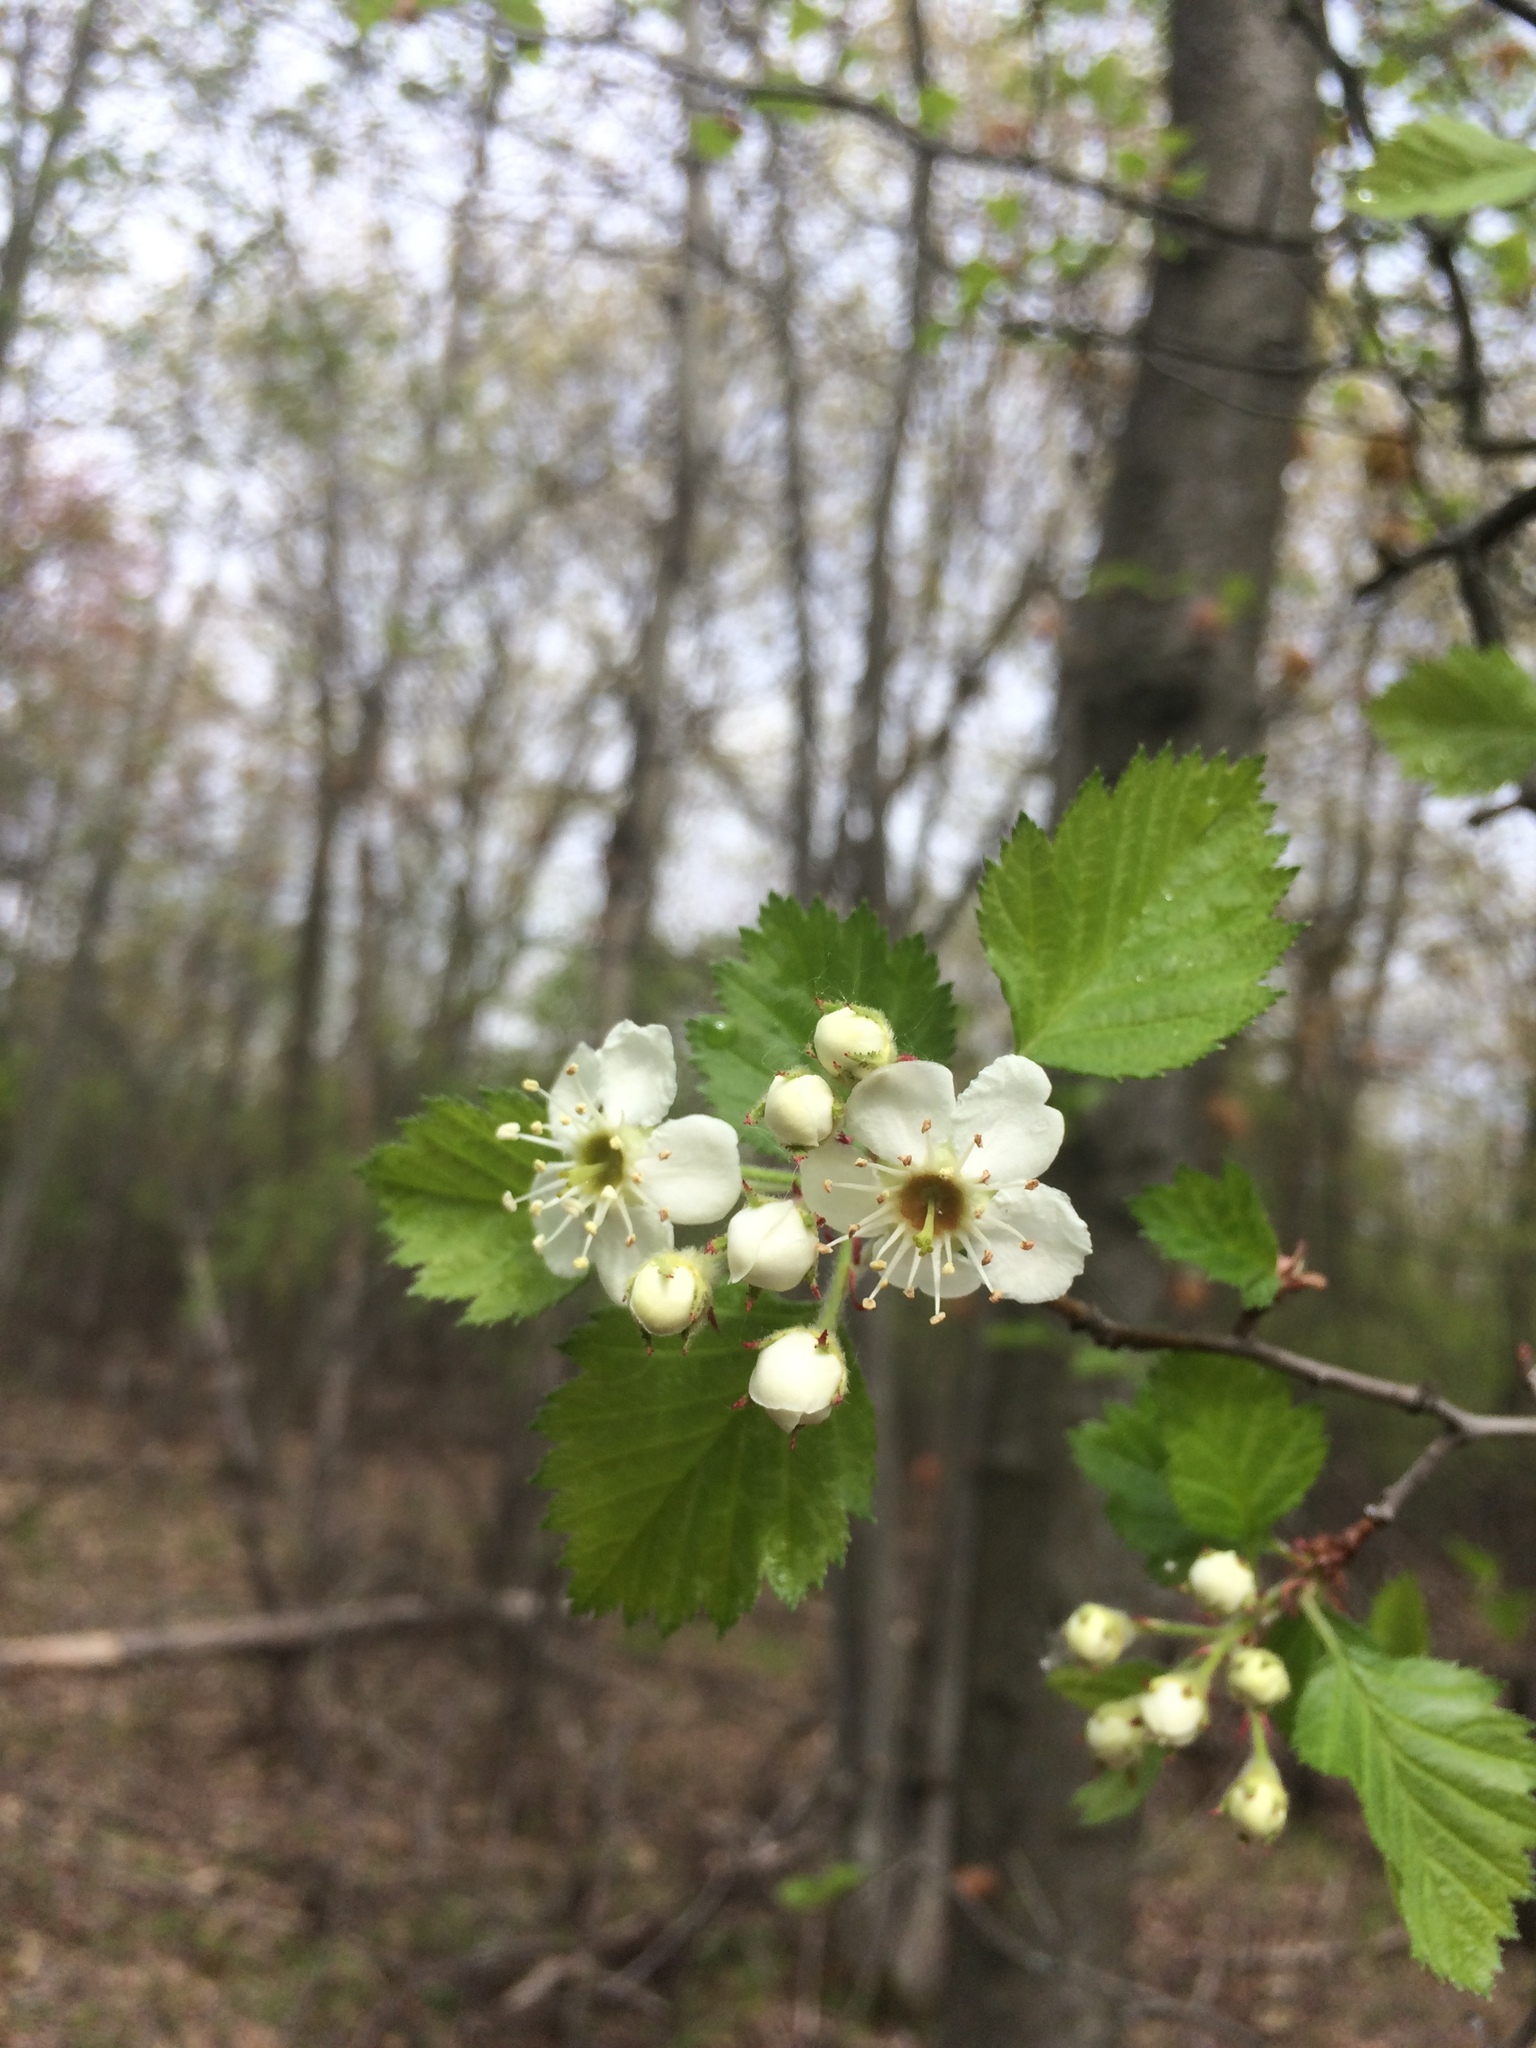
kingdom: Plantae
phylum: Tracheophyta
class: Magnoliopsida
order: Rosales
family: Rosaceae
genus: Crataegus
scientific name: Crataegus submollis
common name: Hairy cockspurthorn
